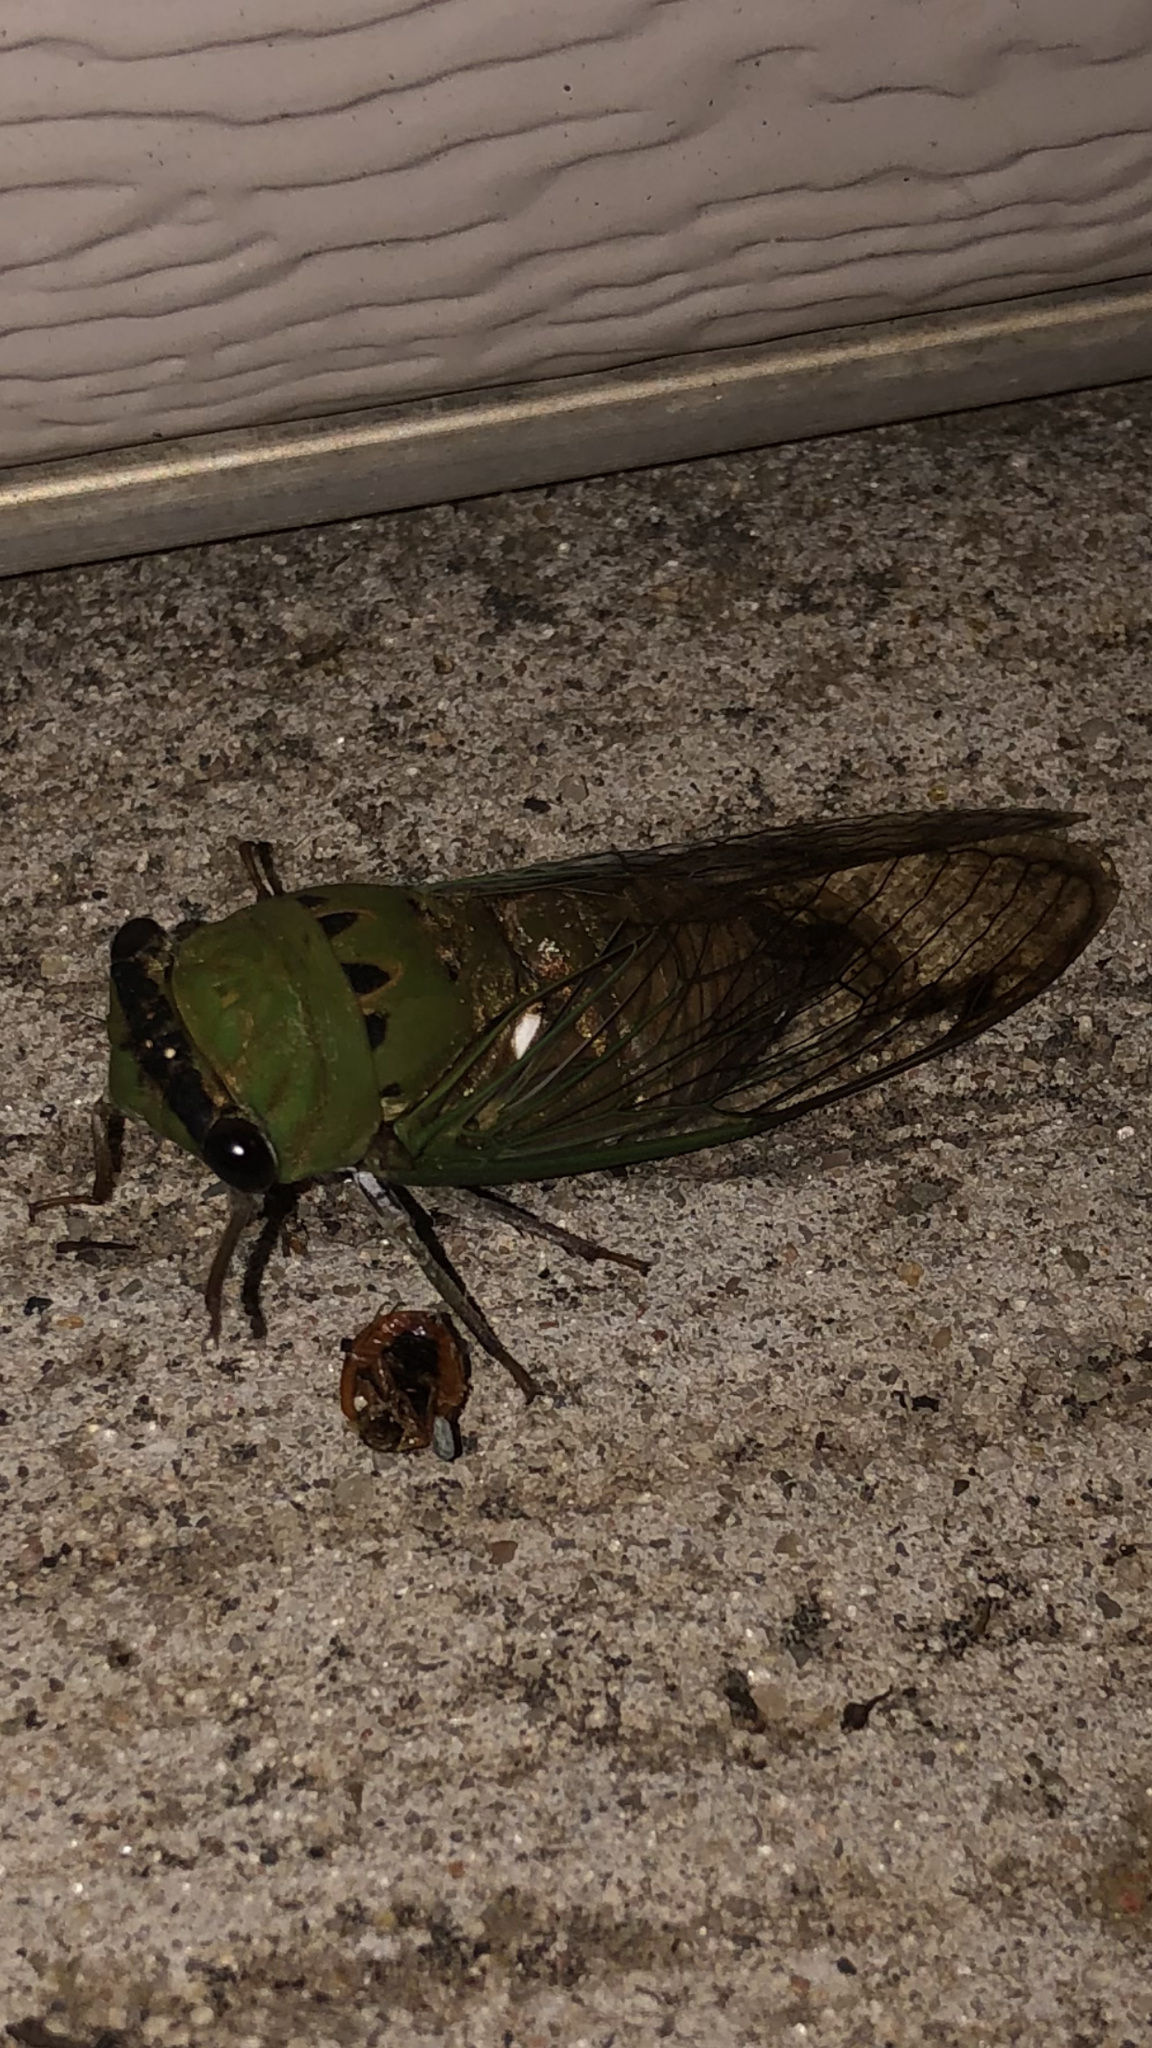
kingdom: Animalia
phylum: Arthropoda
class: Insecta
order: Hemiptera
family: Cicadidae
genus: Neotibicen
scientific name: Neotibicen superbus
